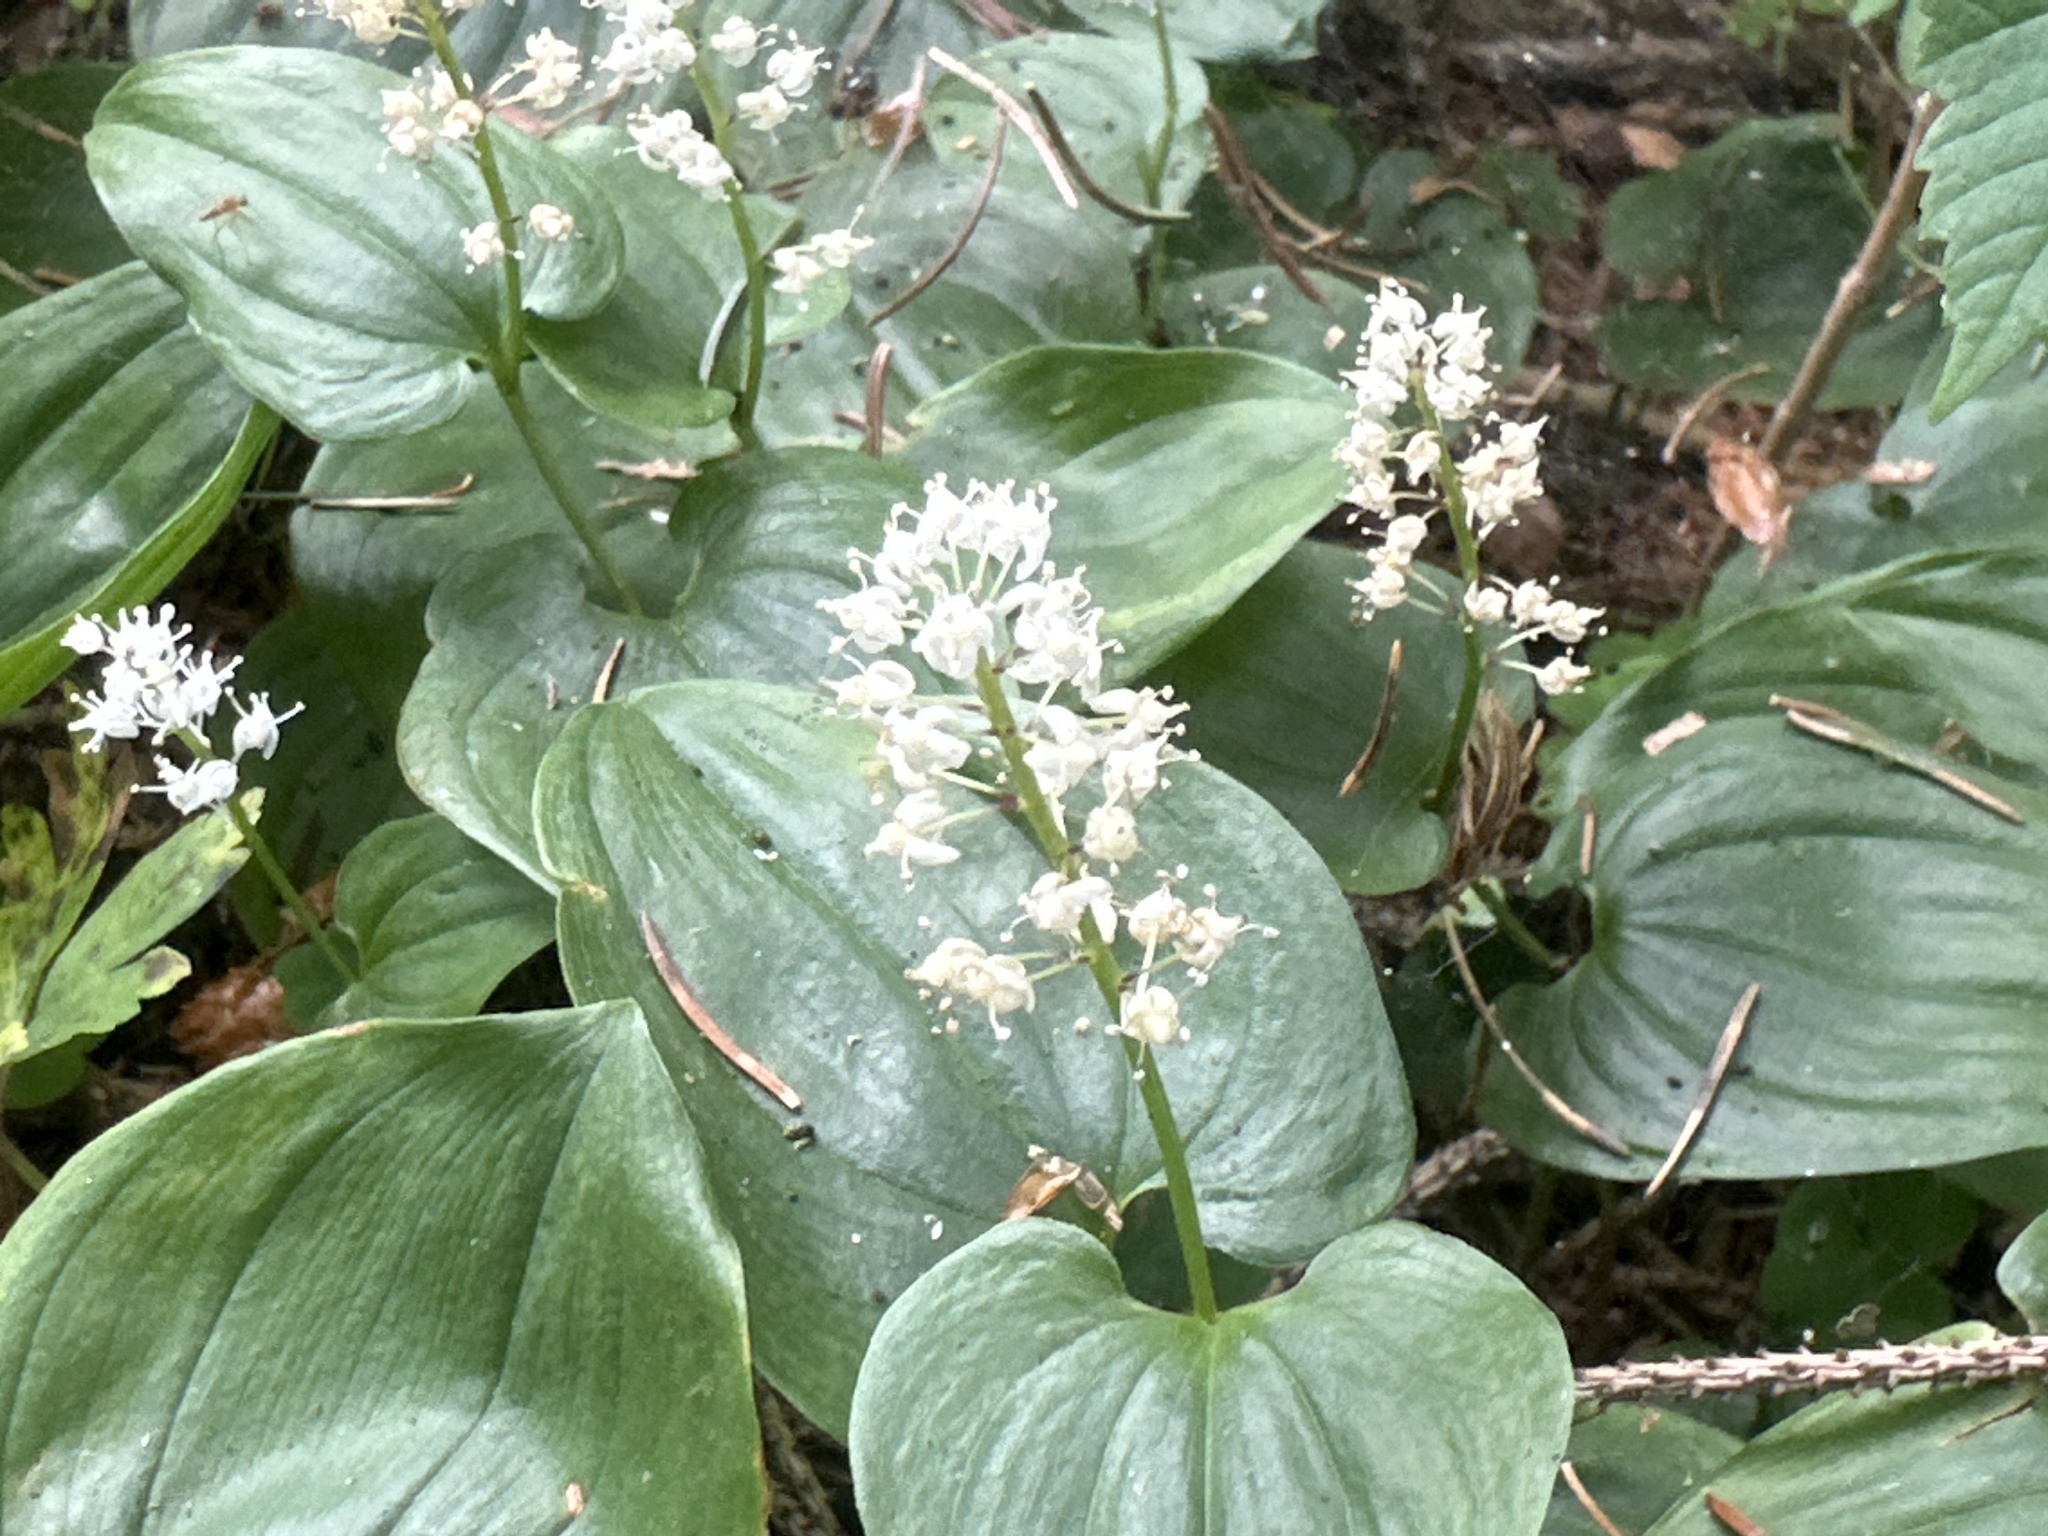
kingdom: Plantae
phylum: Tracheophyta
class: Liliopsida
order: Asparagales
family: Asparagaceae
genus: Maianthemum
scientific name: Maianthemum bifolium
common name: May lily
